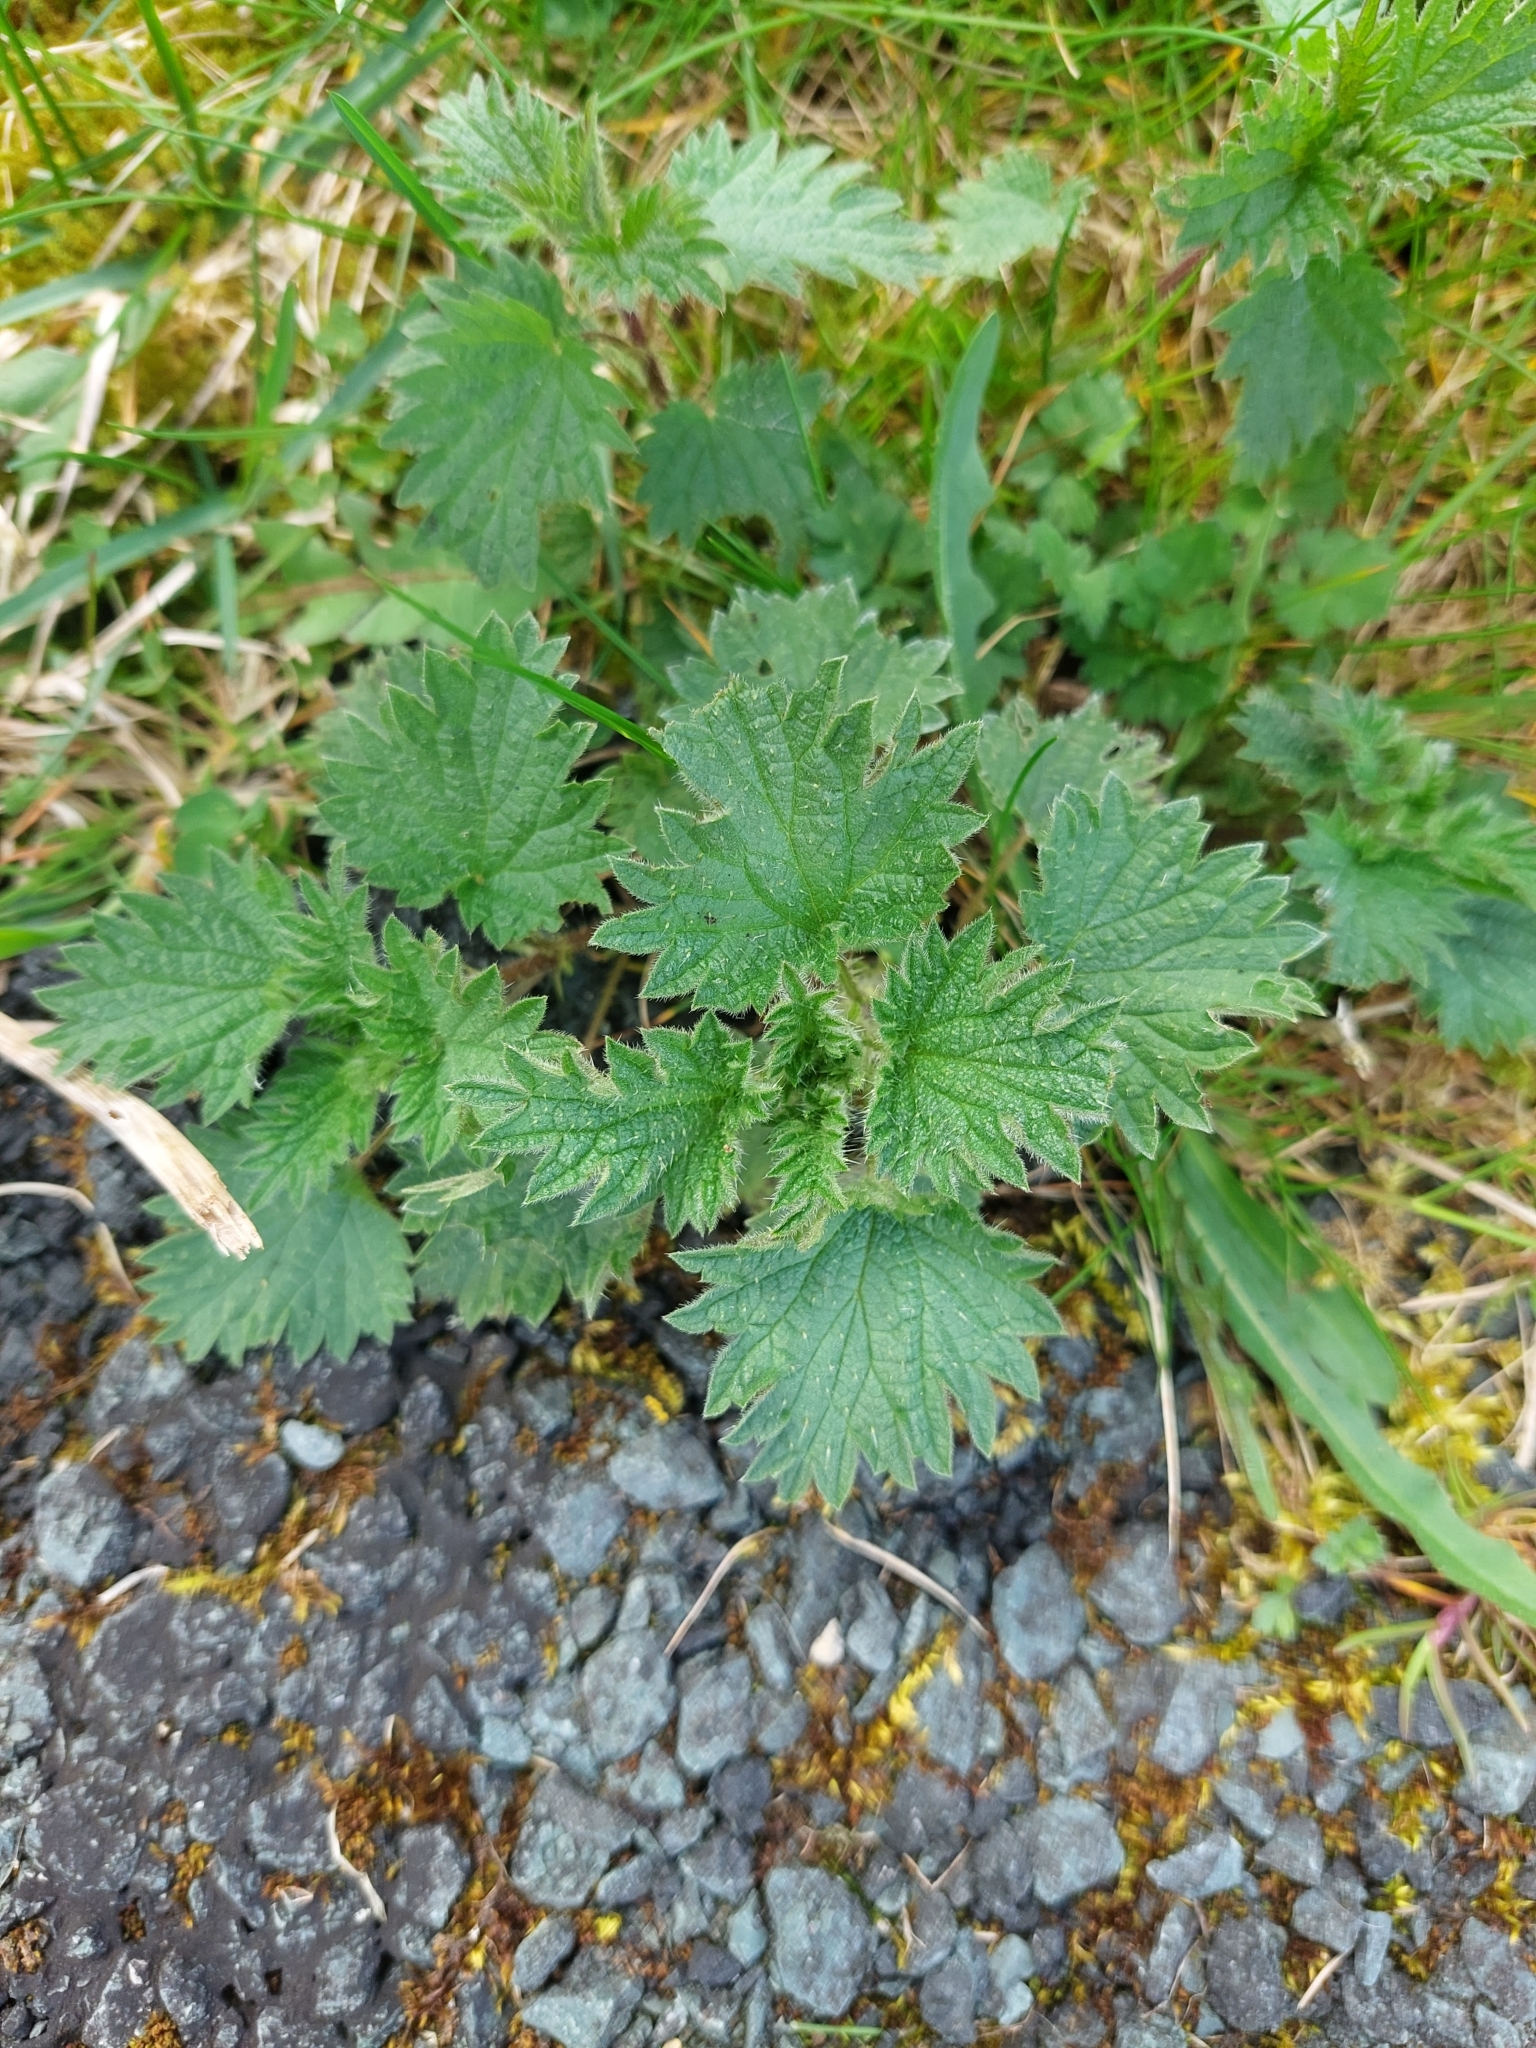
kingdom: Plantae
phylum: Tracheophyta
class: Magnoliopsida
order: Rosales
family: Urticaceae
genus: Urtica
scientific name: Urtica dioica
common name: Common nettle
